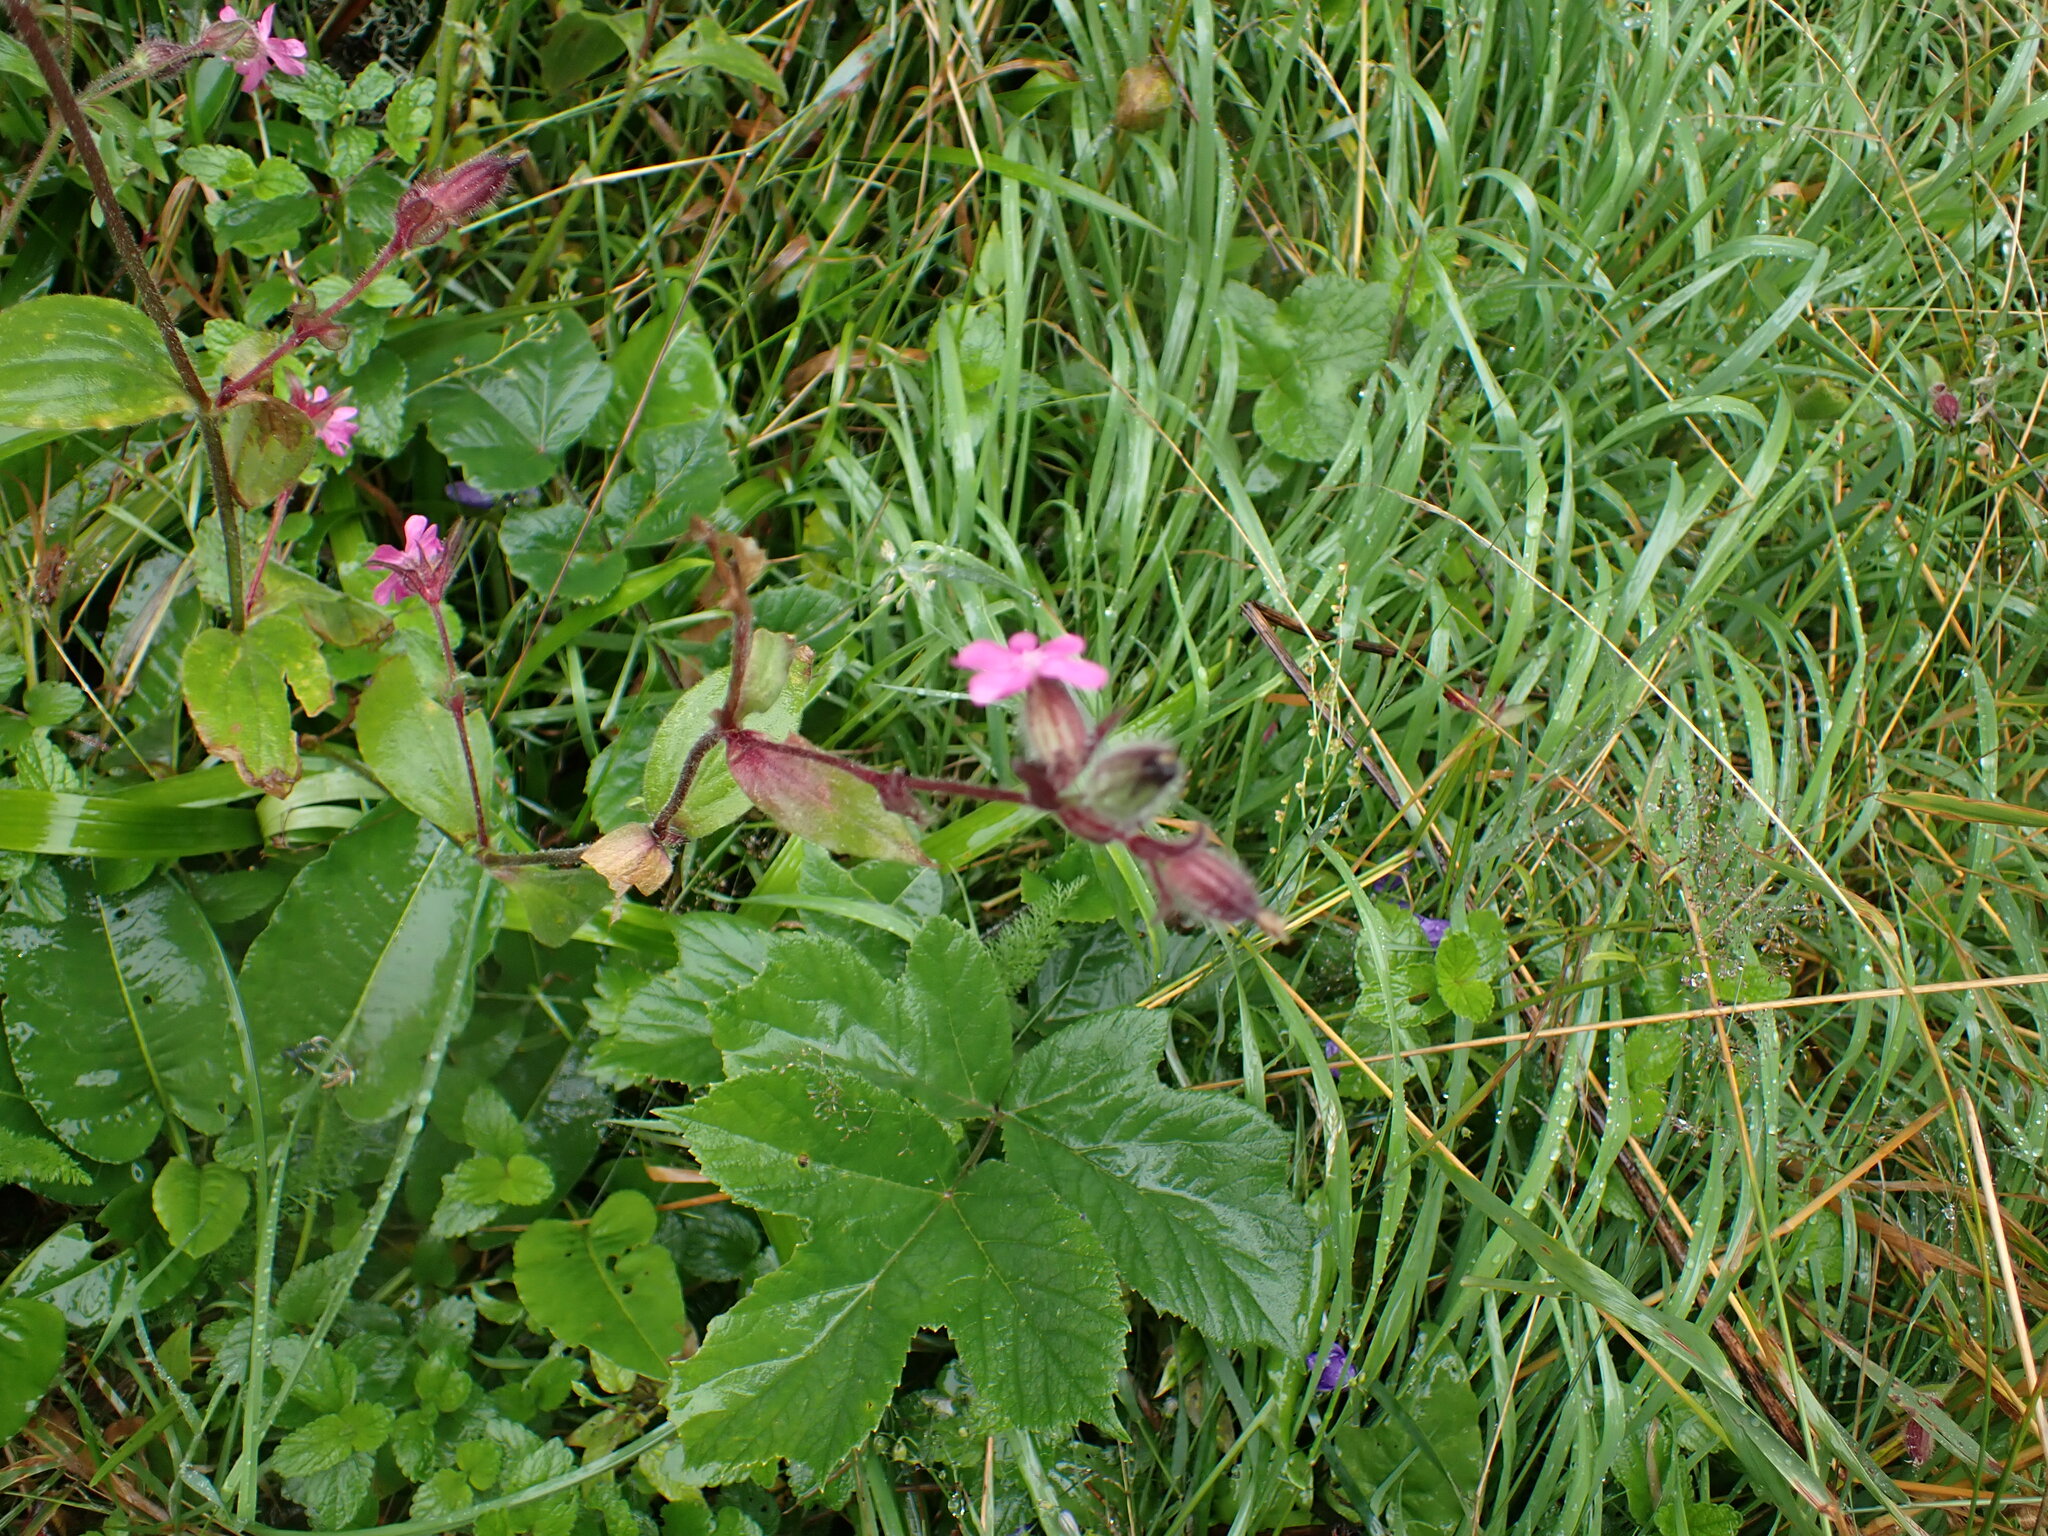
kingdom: Plantae
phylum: Tracheophyta
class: Magnoliopsida
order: Caryophyllales
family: Caryophyllaceae
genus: Silene
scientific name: Silene dioica
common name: Red campion
